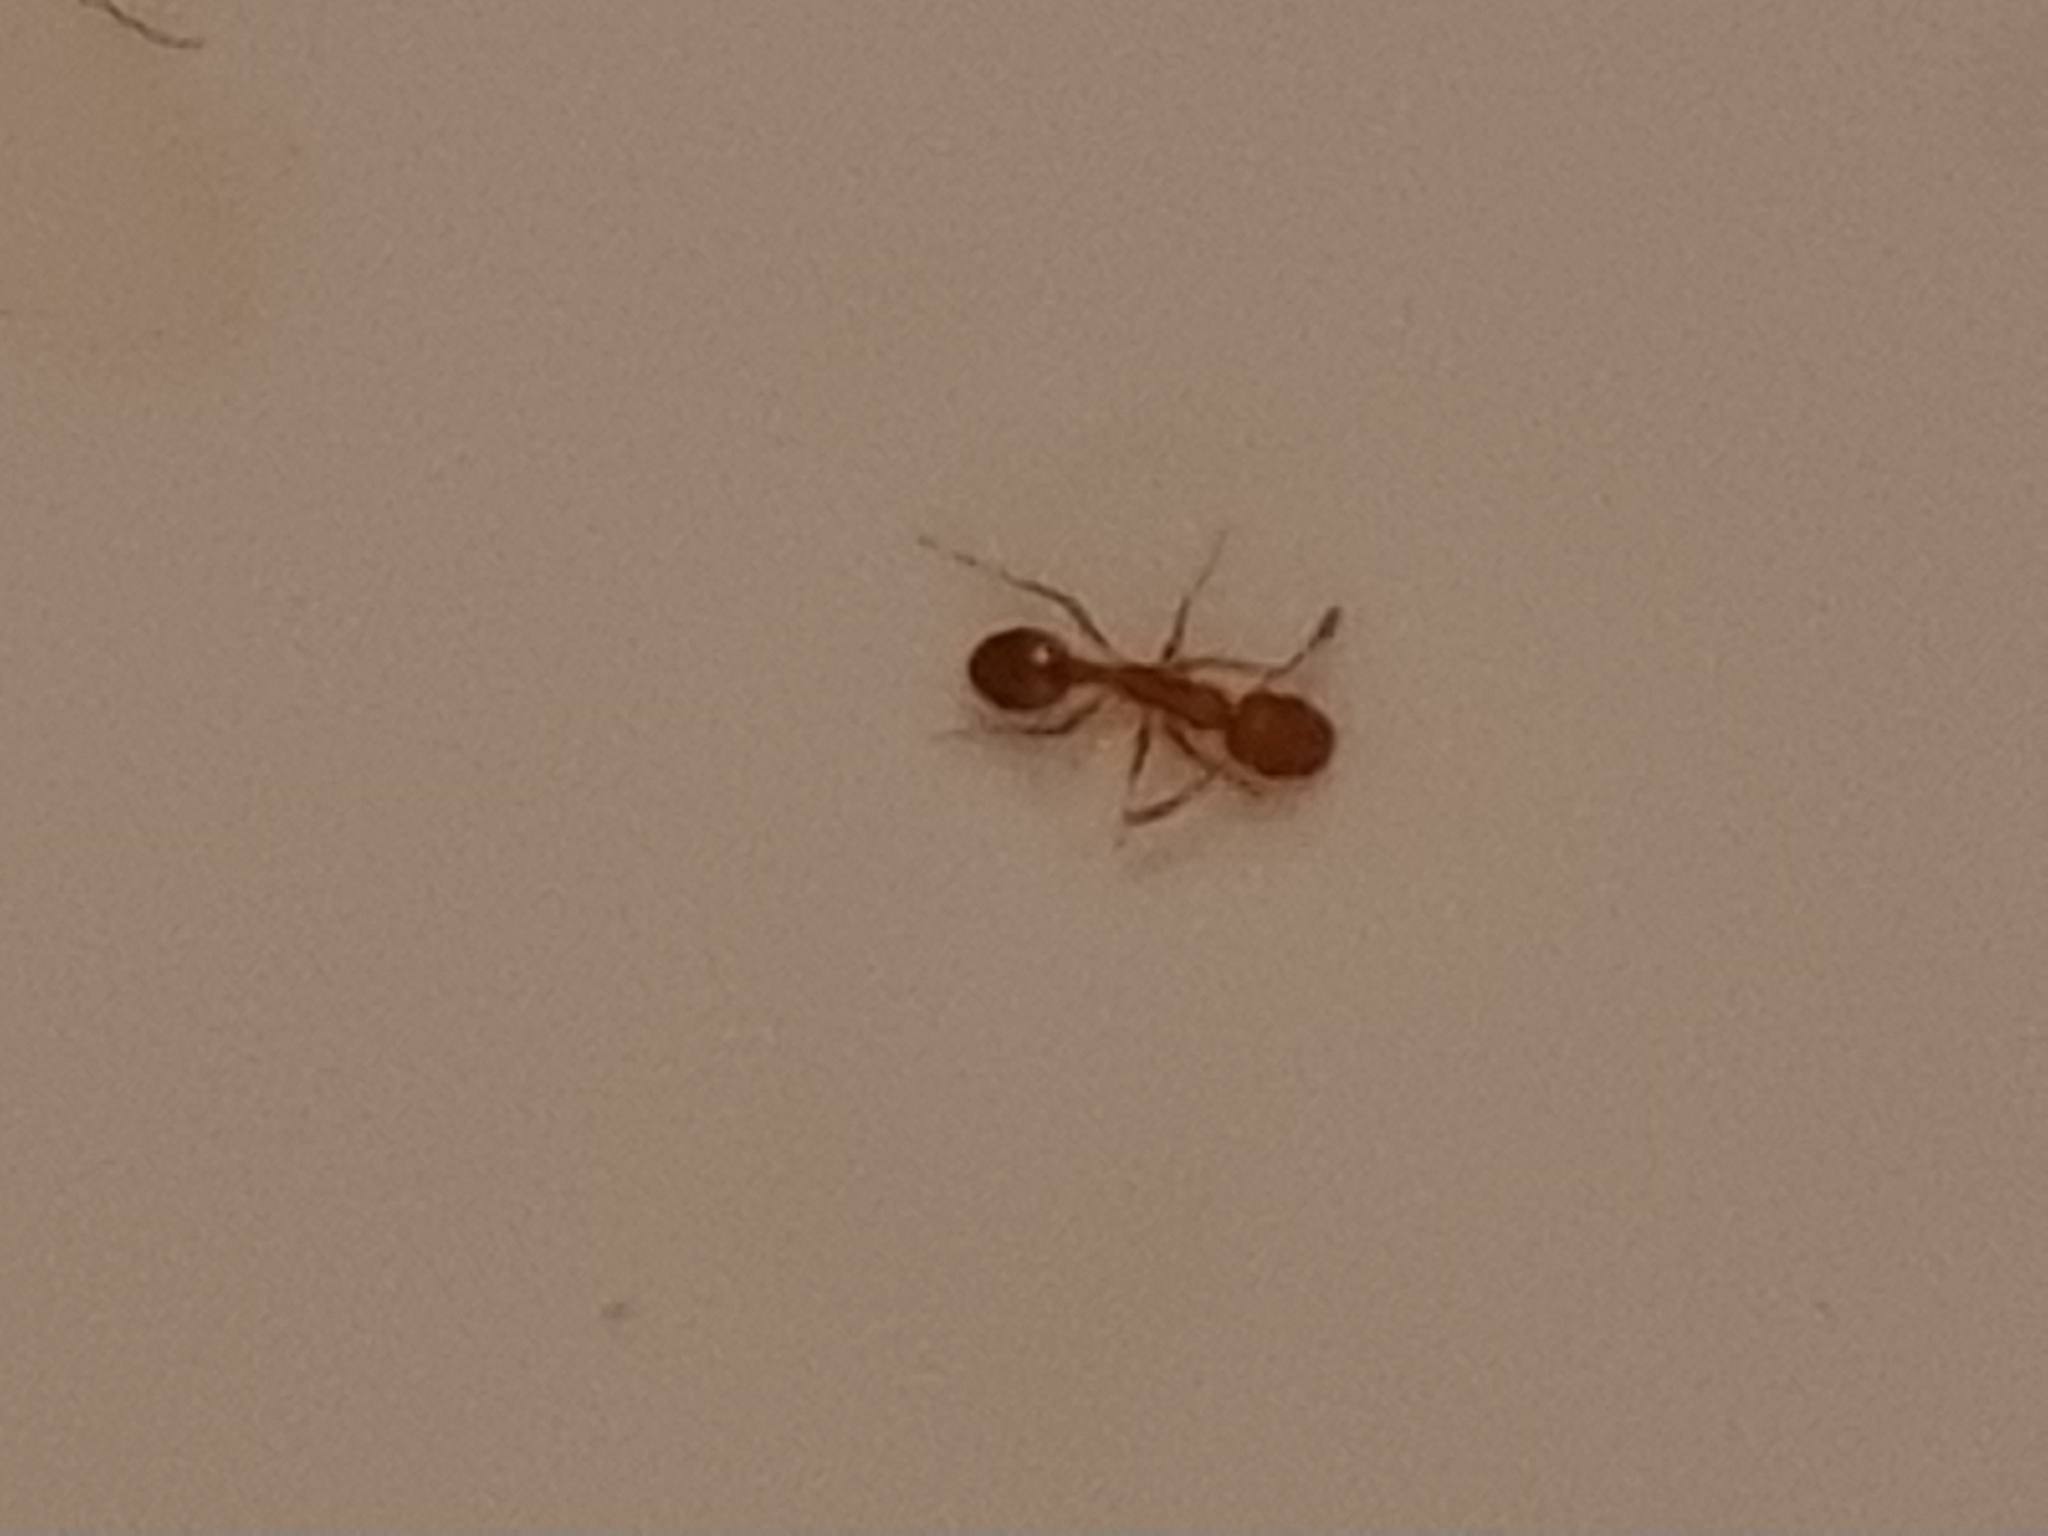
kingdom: Animalia
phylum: Arthropoda
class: Insecta
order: Hymenoptera
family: Formicidae
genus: Monomorium
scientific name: Monomorium pharaonis
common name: Pharaoh ant
